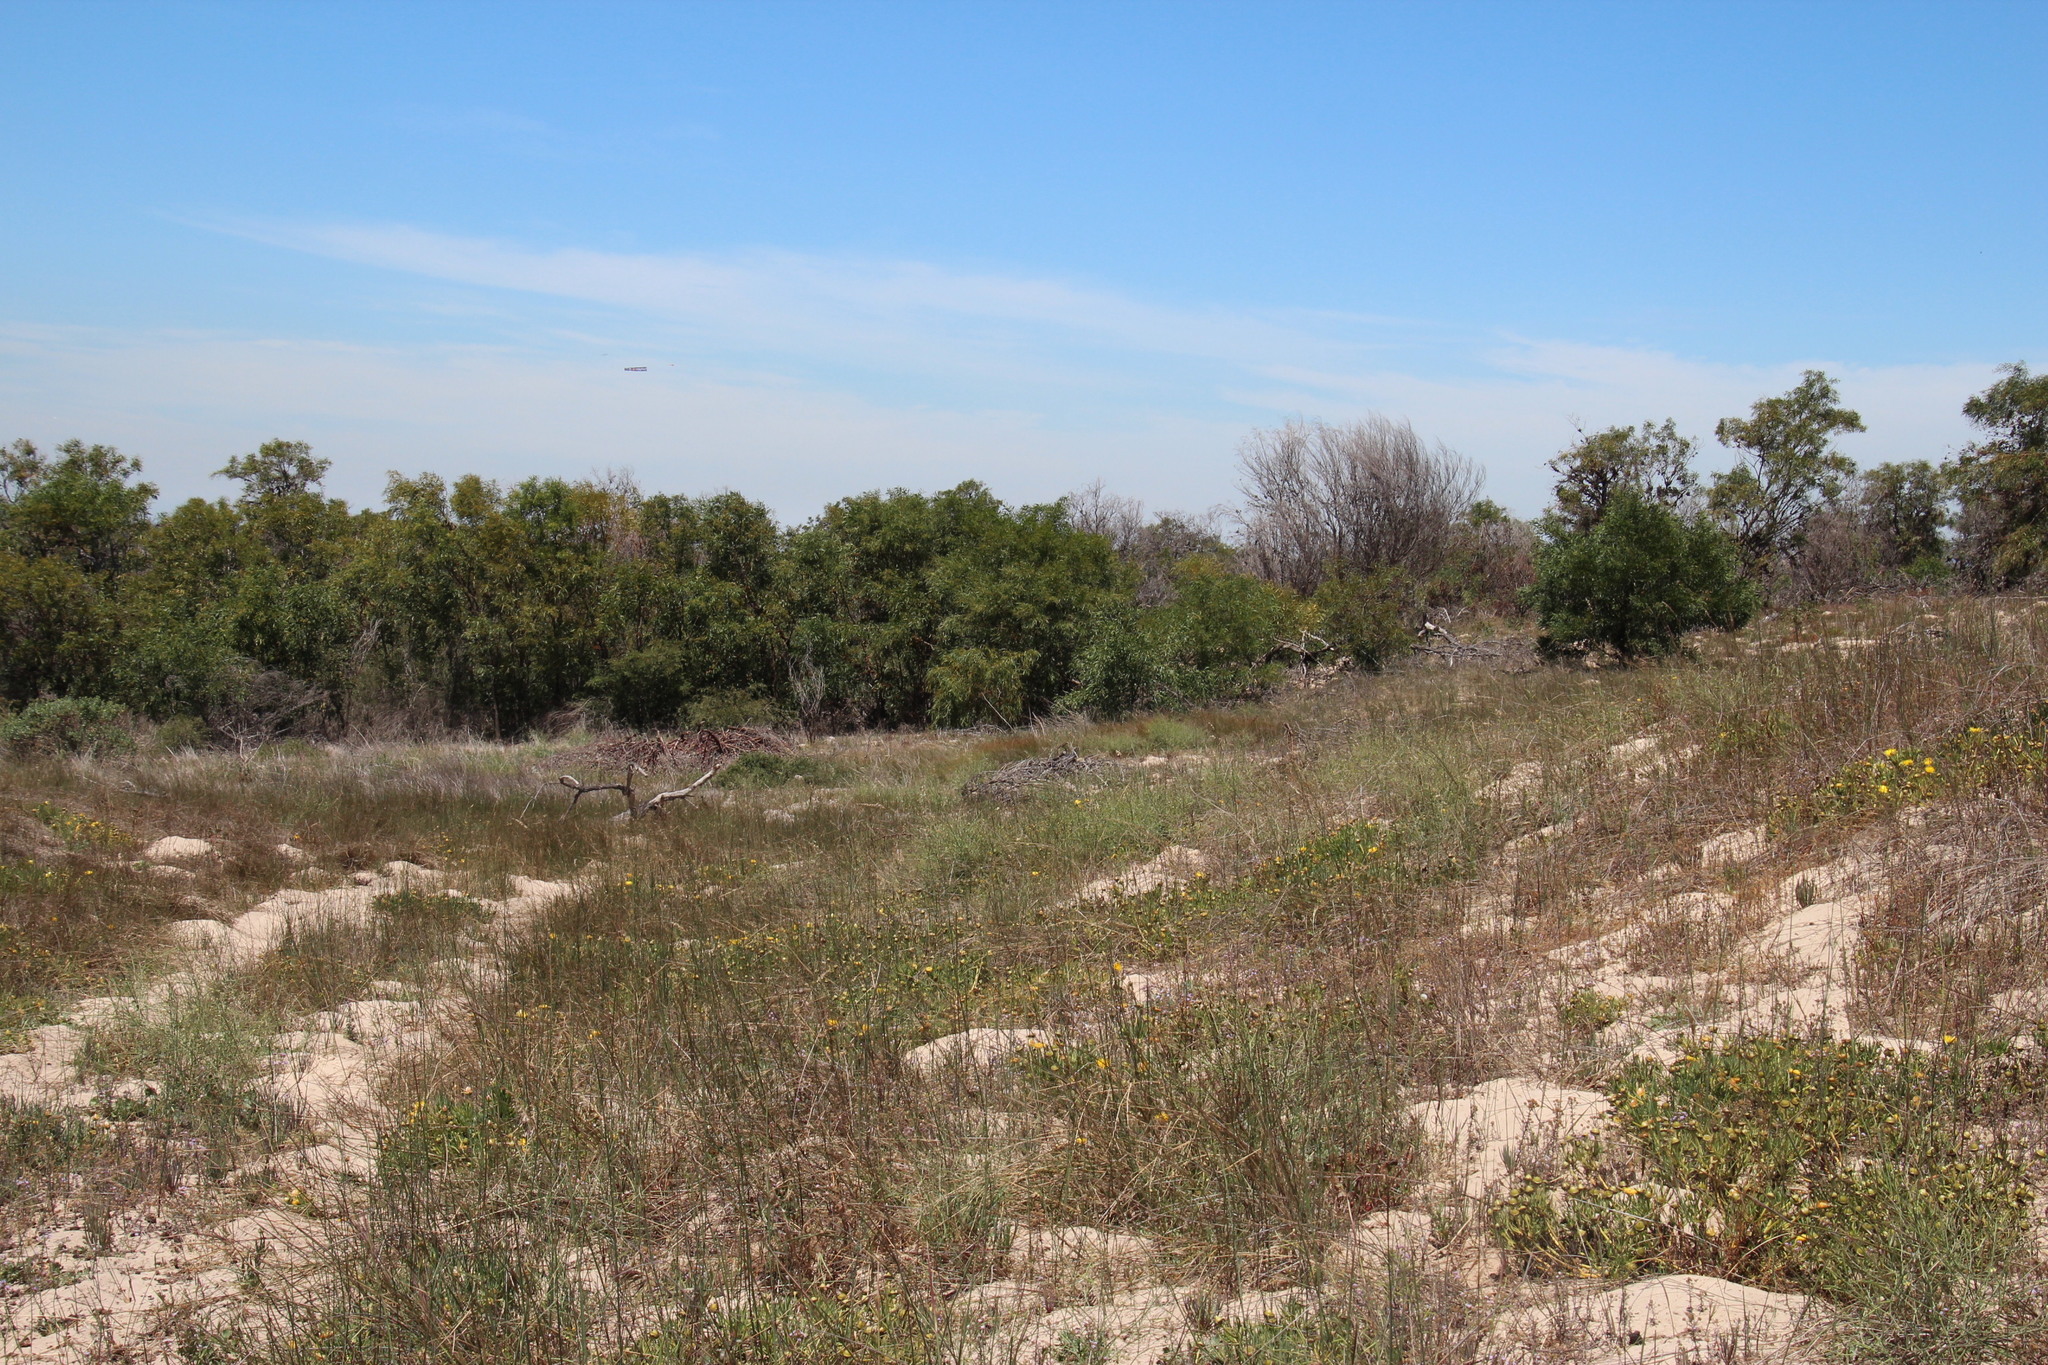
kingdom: Plantae
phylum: Tracheophyta
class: Magnoliopsida
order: Fabales
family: Fabaceae
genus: Acacia
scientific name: Acacia saligna
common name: Orange wattle
